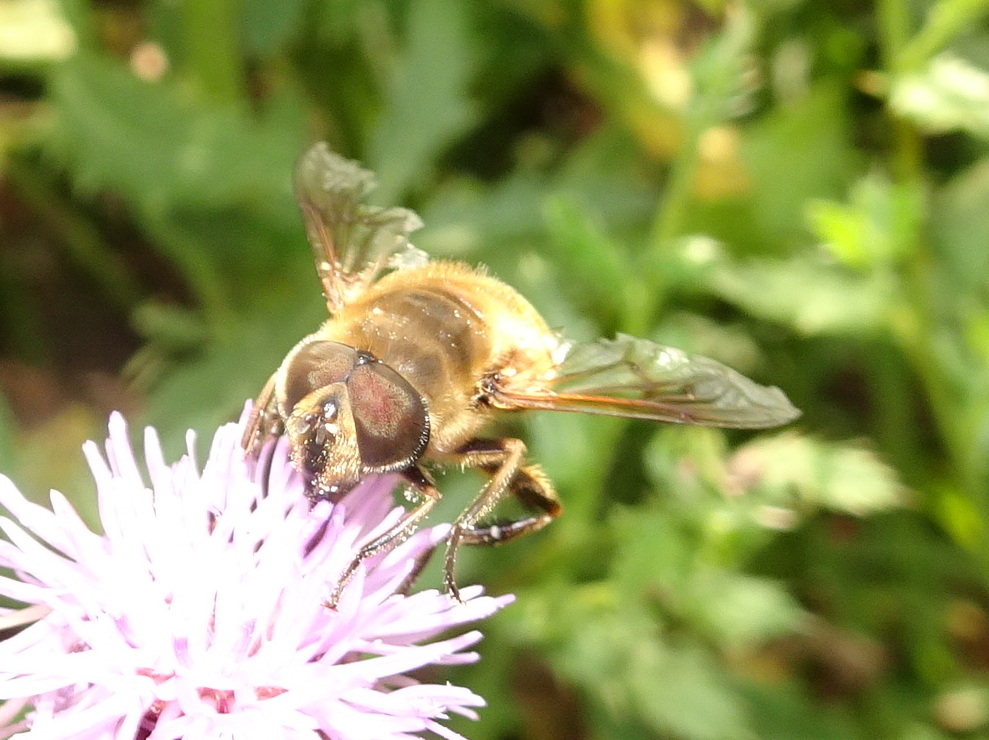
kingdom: Animalia
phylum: Arthropoda
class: Insecta
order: Diptera
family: Syrphidae
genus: Eristalis
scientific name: Eristalis tenax
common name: Drone fly
